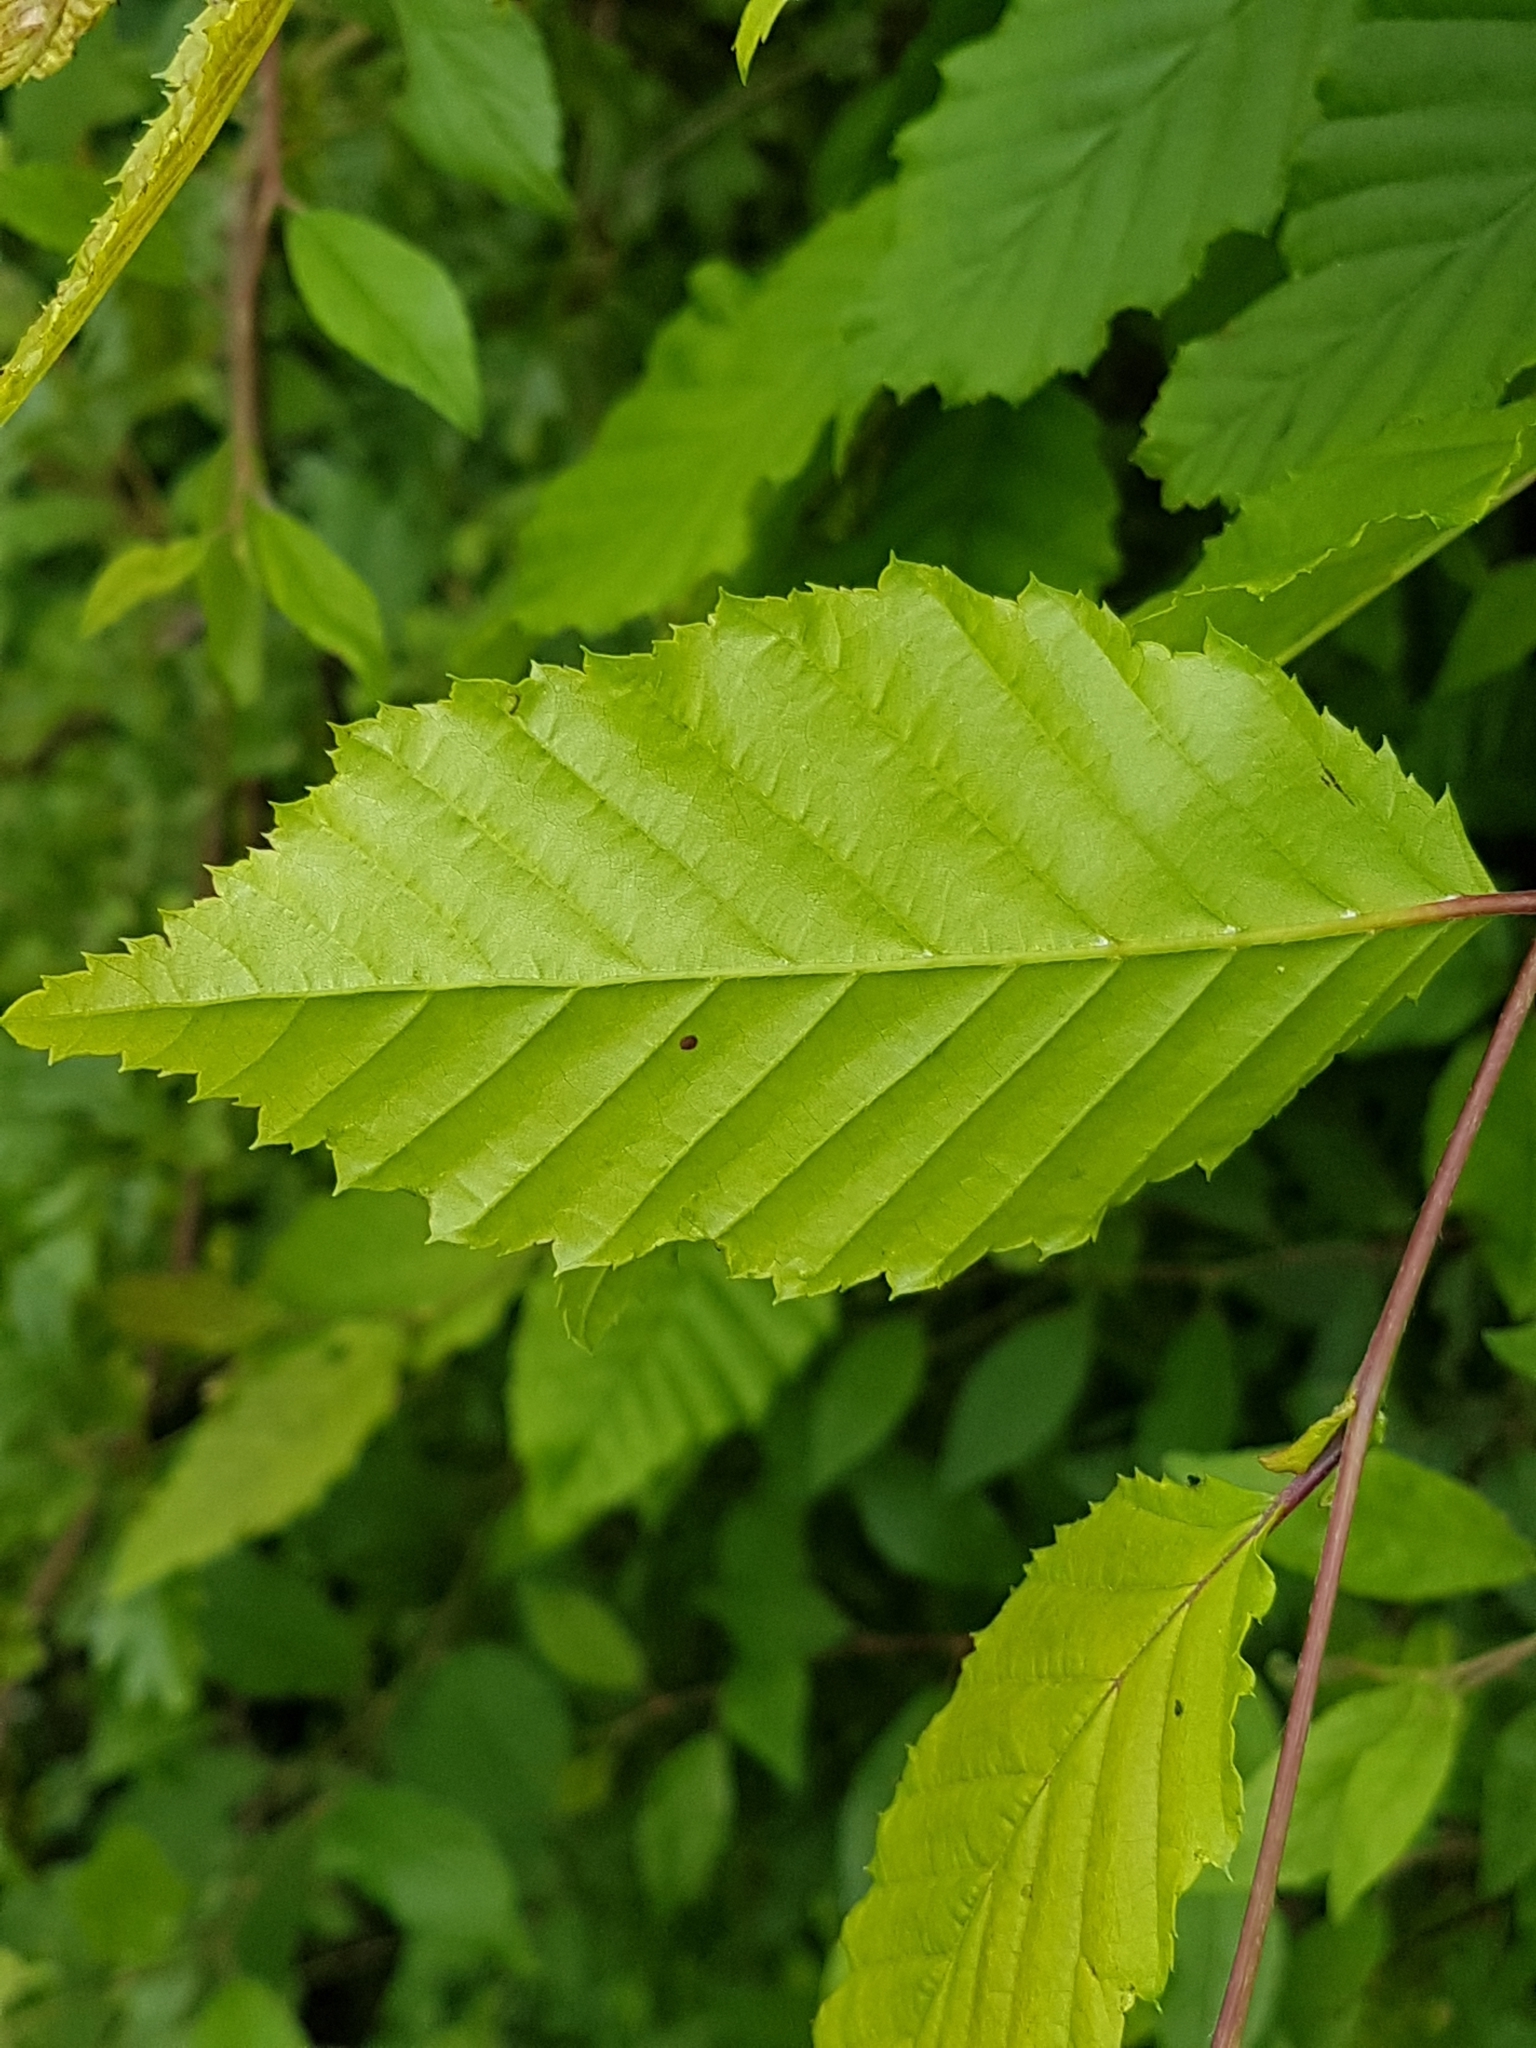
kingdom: Plantae
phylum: Tracheophyta
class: Magnoliopsida
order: Fagales
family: Betulaceae
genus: Carpinus
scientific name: Carpinus betulus
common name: Hornbeam
